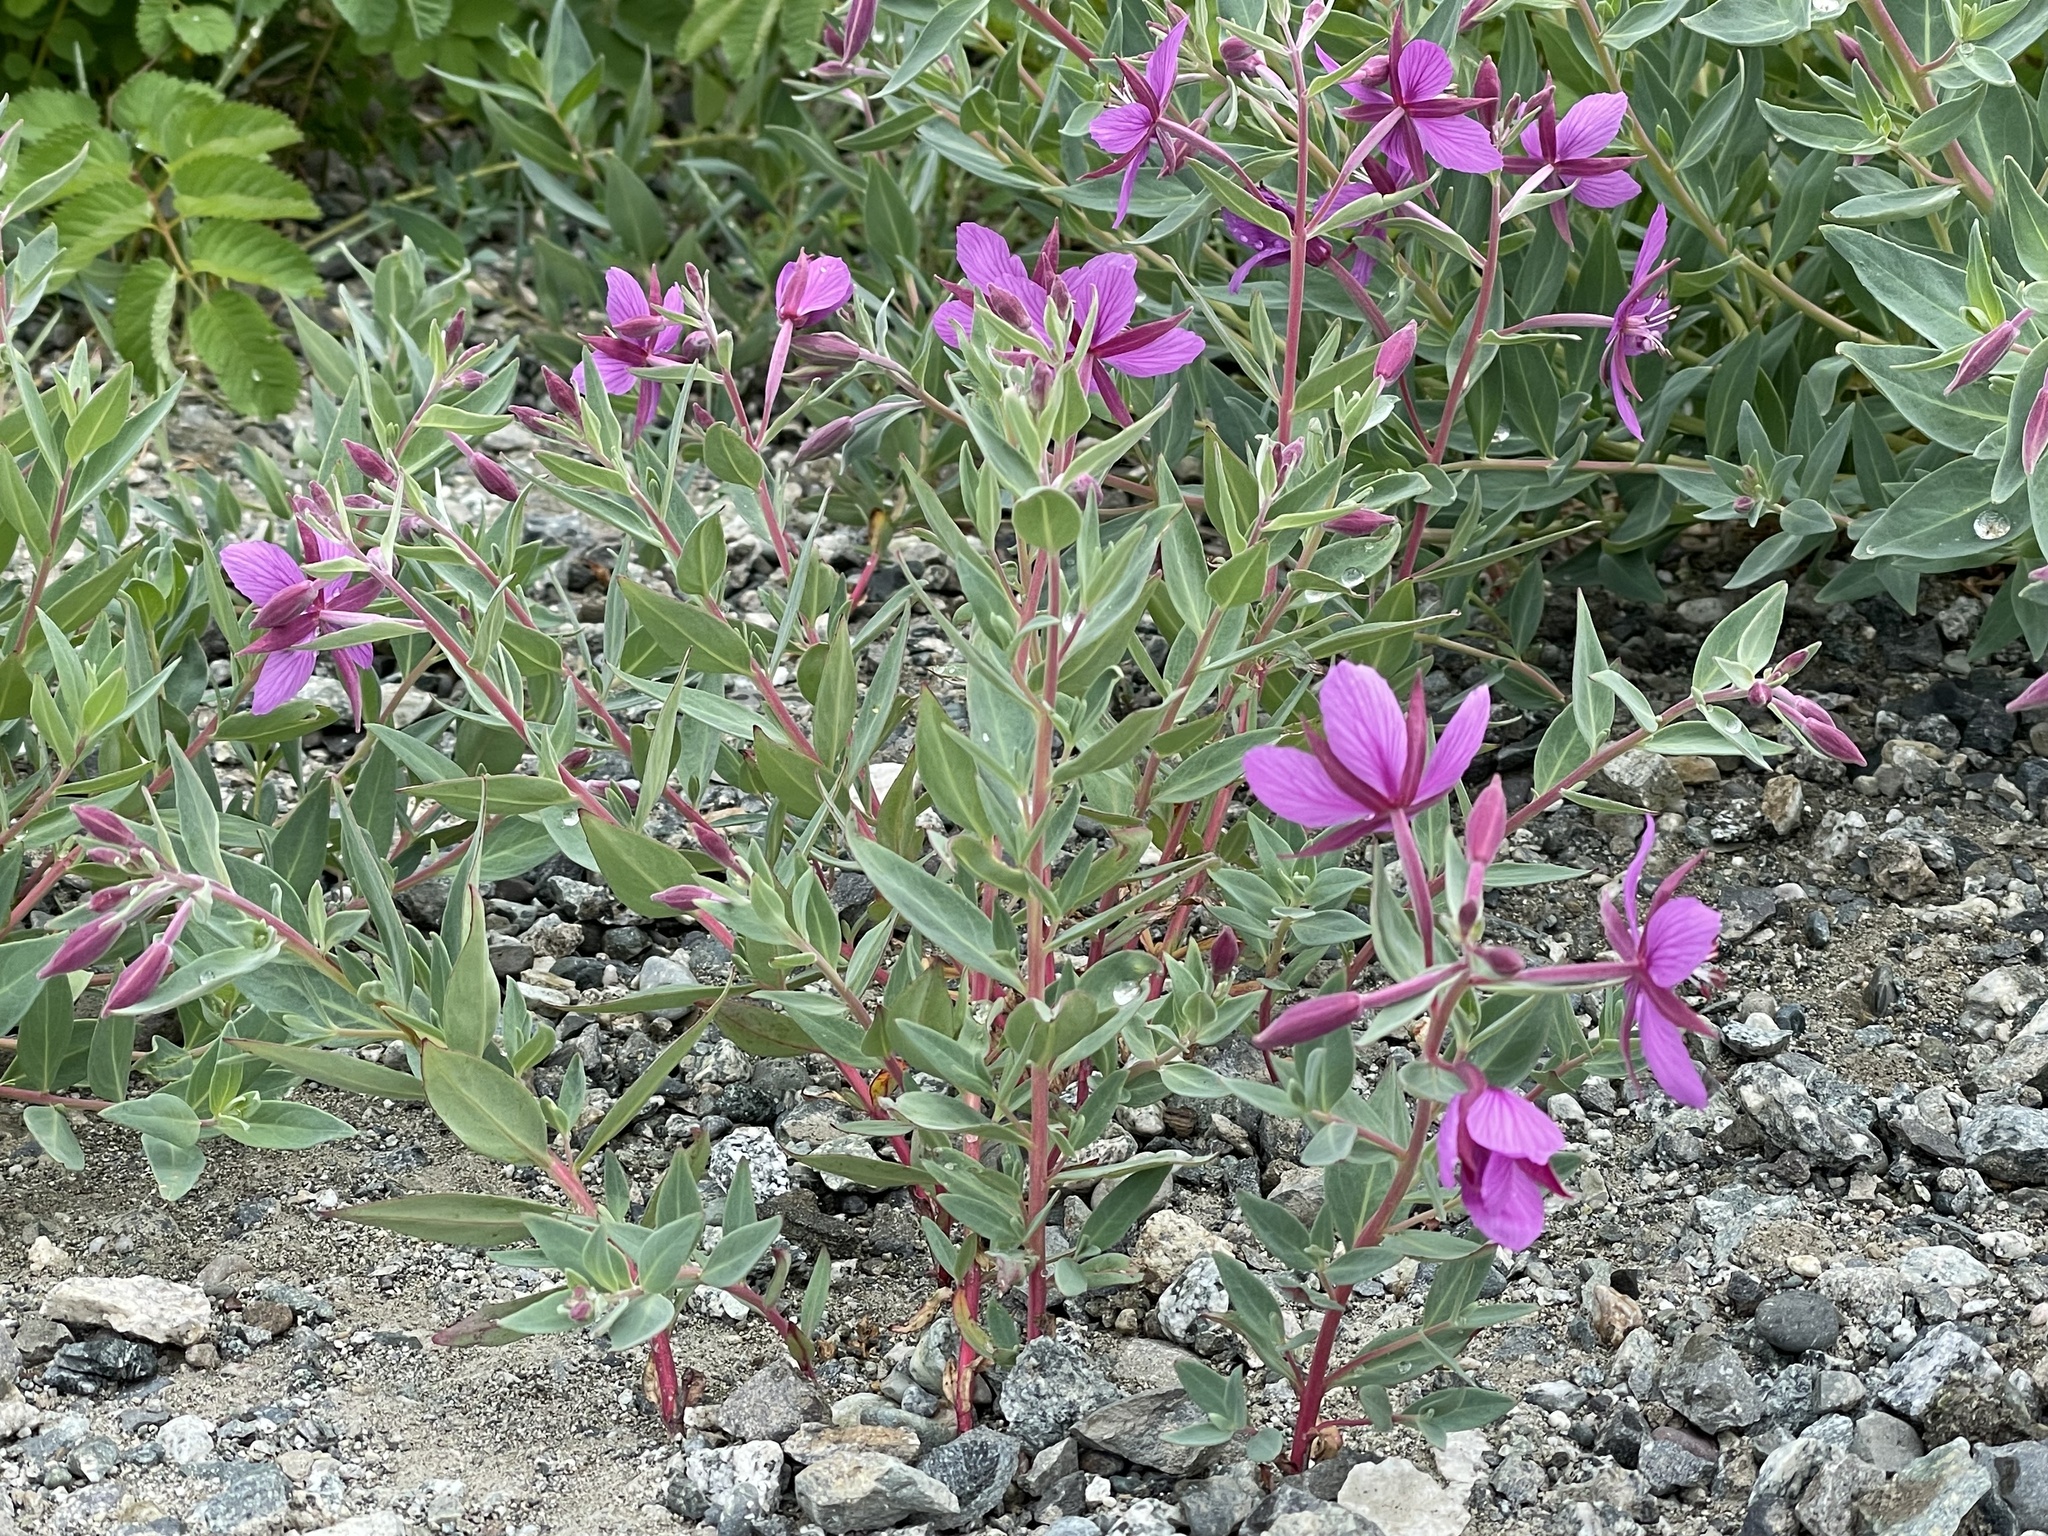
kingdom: Plantae
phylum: Tracheophyta
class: Magnoliopsida
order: Myrtales
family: Onagraceae
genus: Chamaenerion
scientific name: Chamaenerion latifolium
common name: Dwarf fireweed
